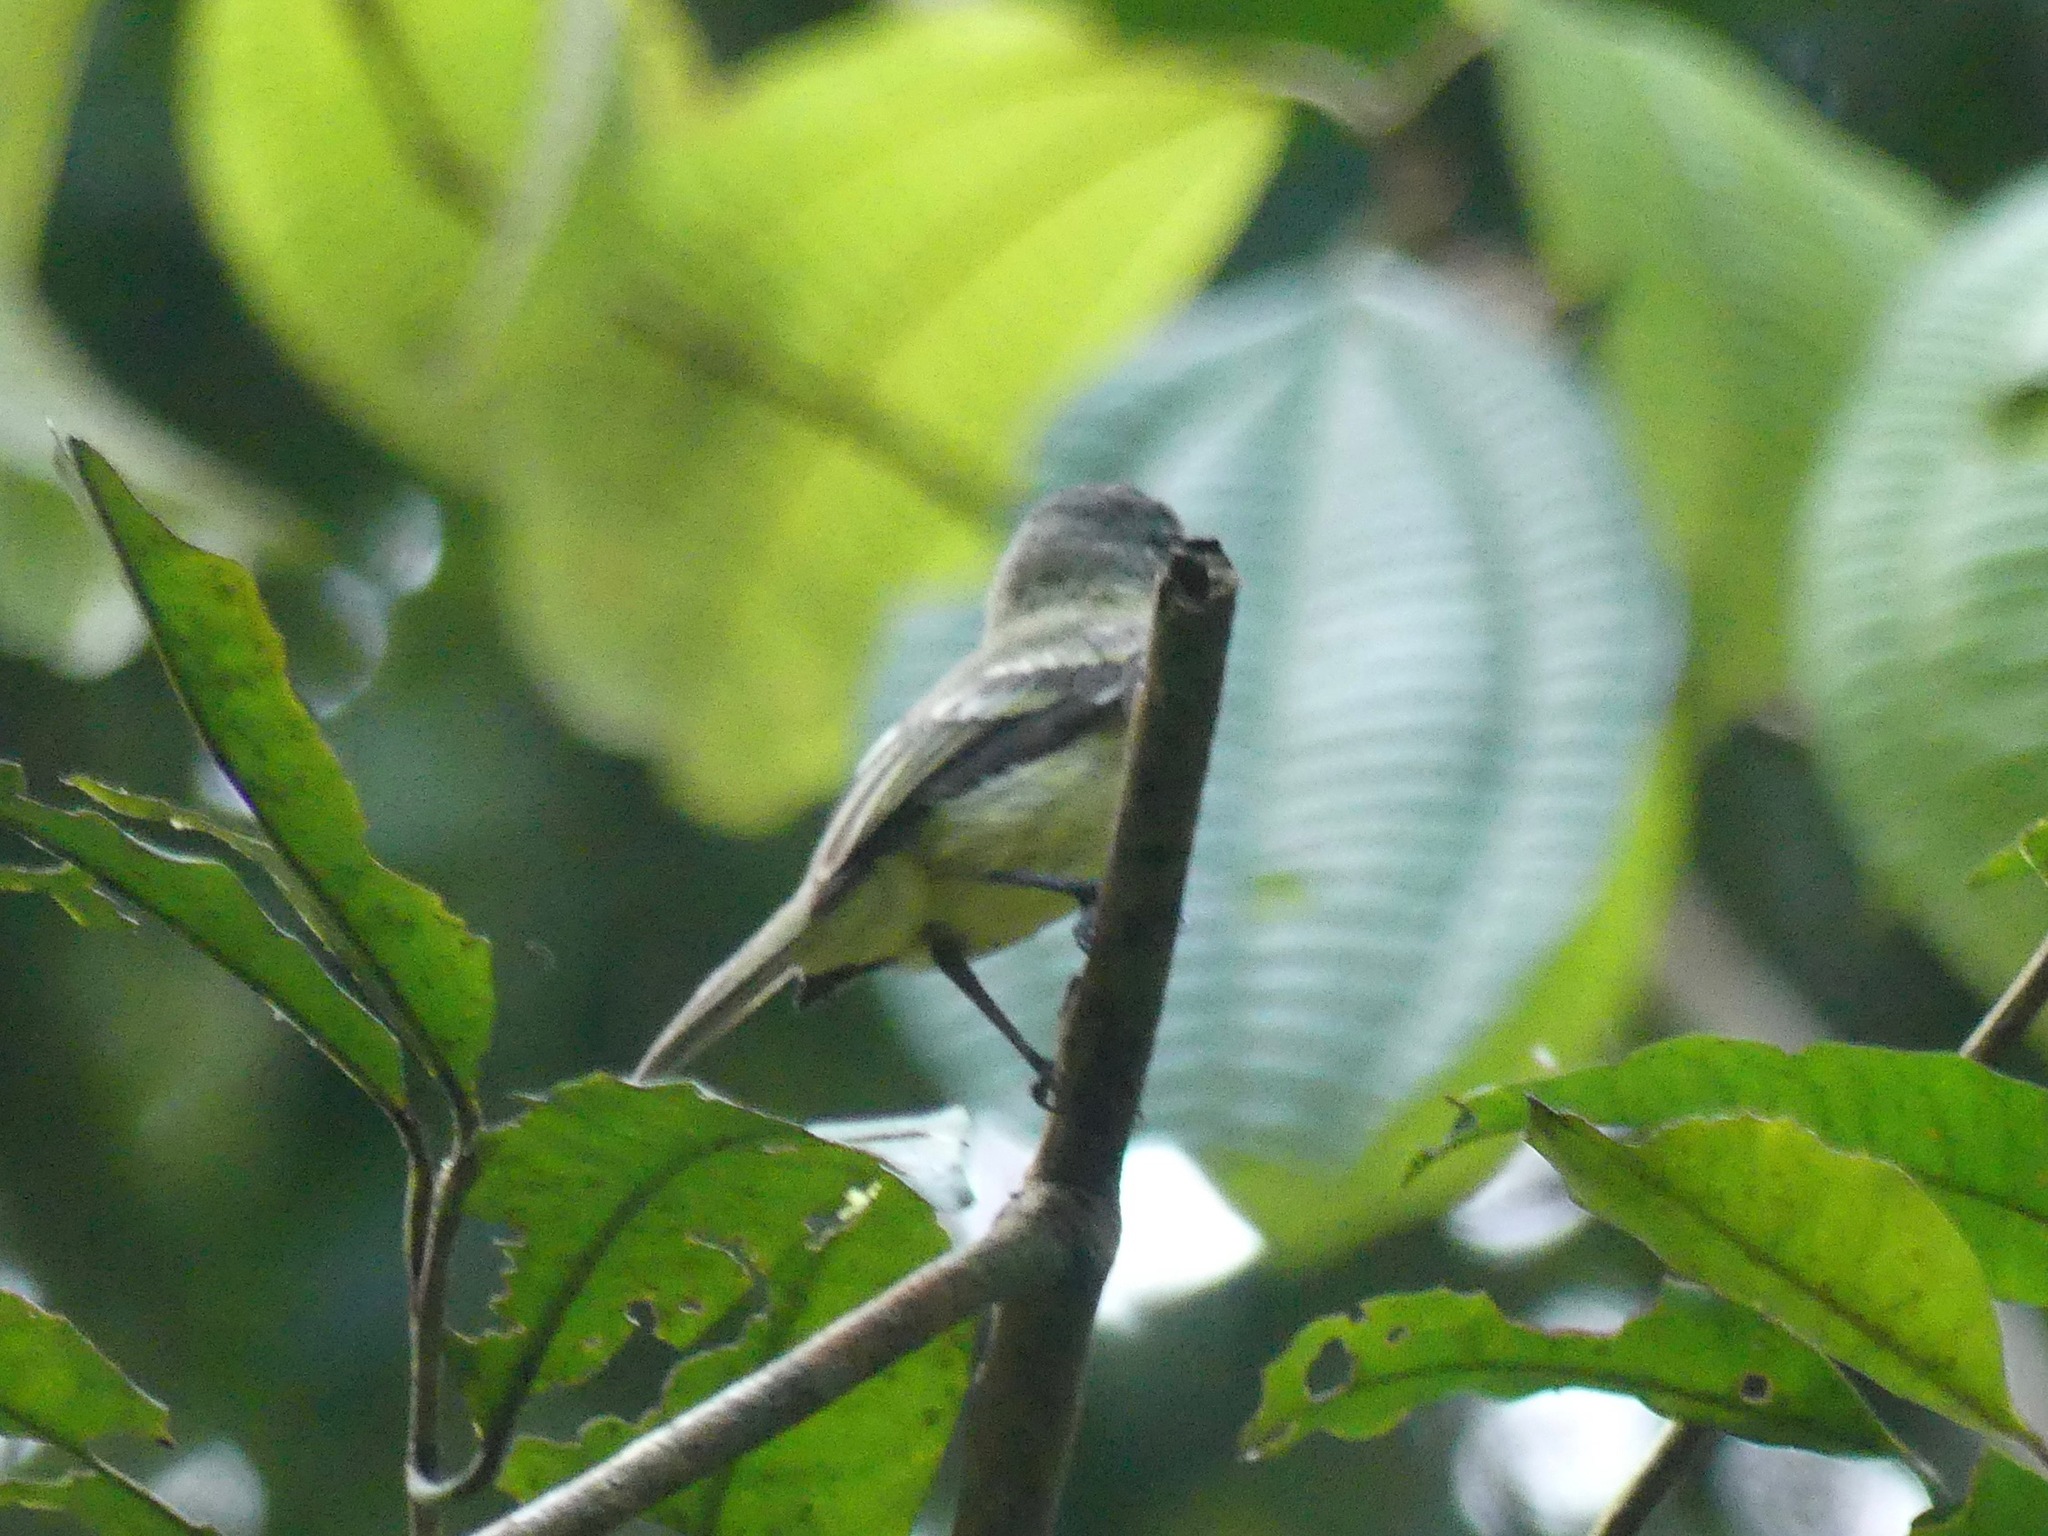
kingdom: Animalia
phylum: Chordata
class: Aves
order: Passeriformes
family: Tyrannidae
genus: Myiopagis
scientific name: Myiopagis gaimardii
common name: Forest elaenia
